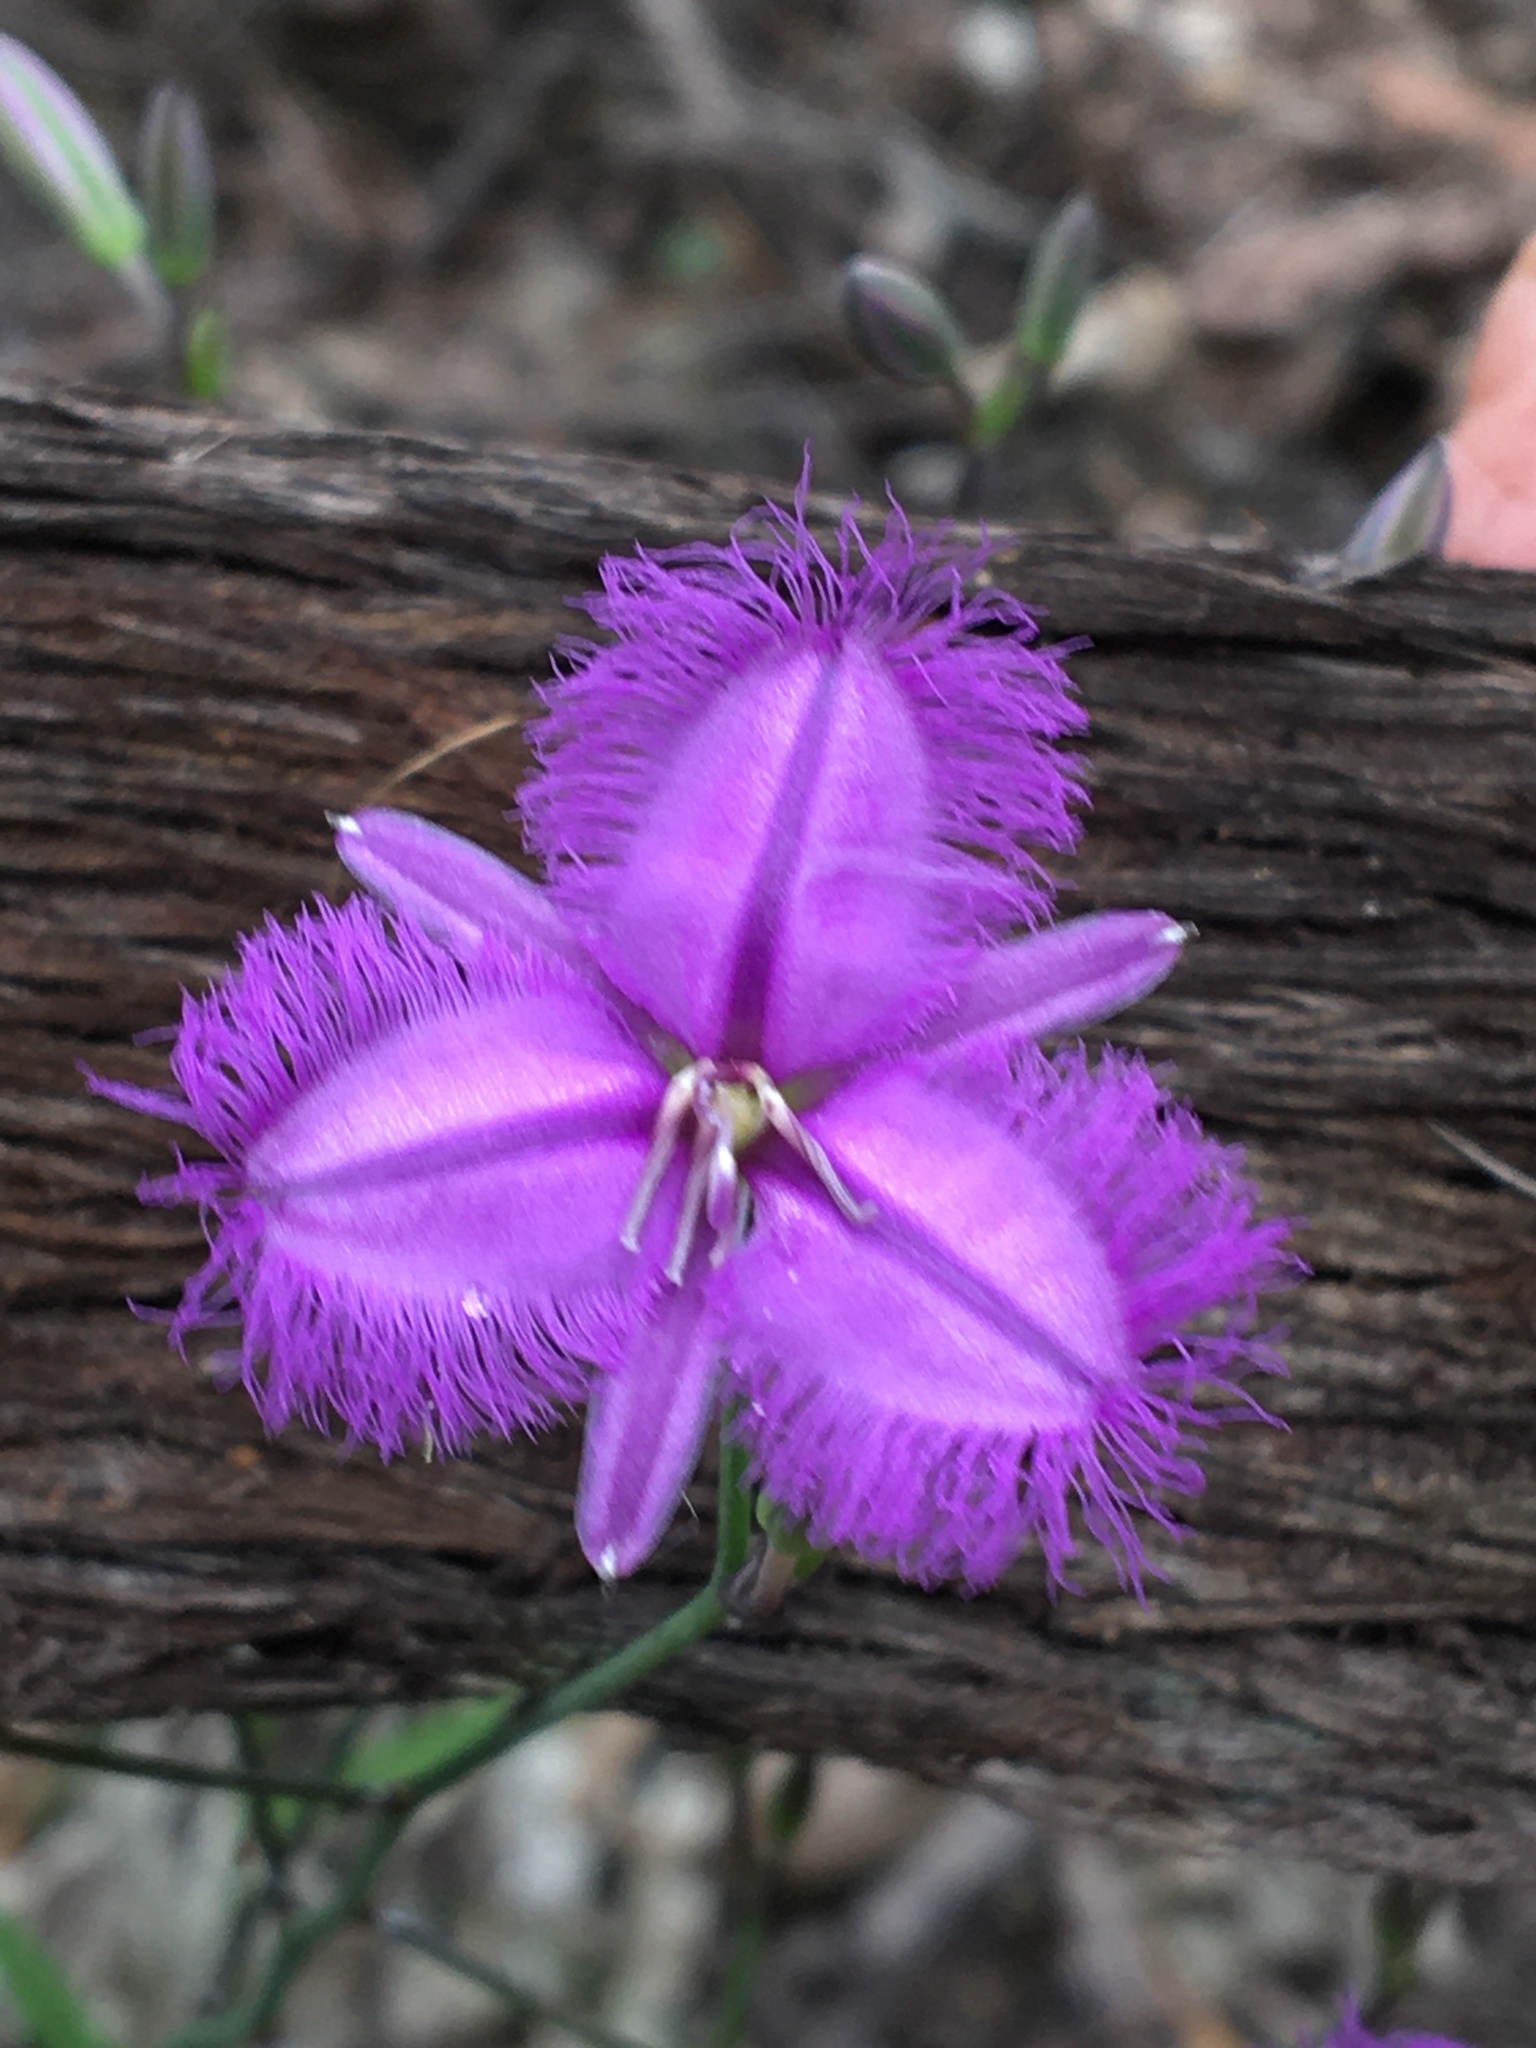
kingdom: Plantae
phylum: Tracheophyta
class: Liliopsida
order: Asparagales
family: Asparagaceae
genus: Thysanotus
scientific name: Thysanotus tuberosus
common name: Common fringed-lily
